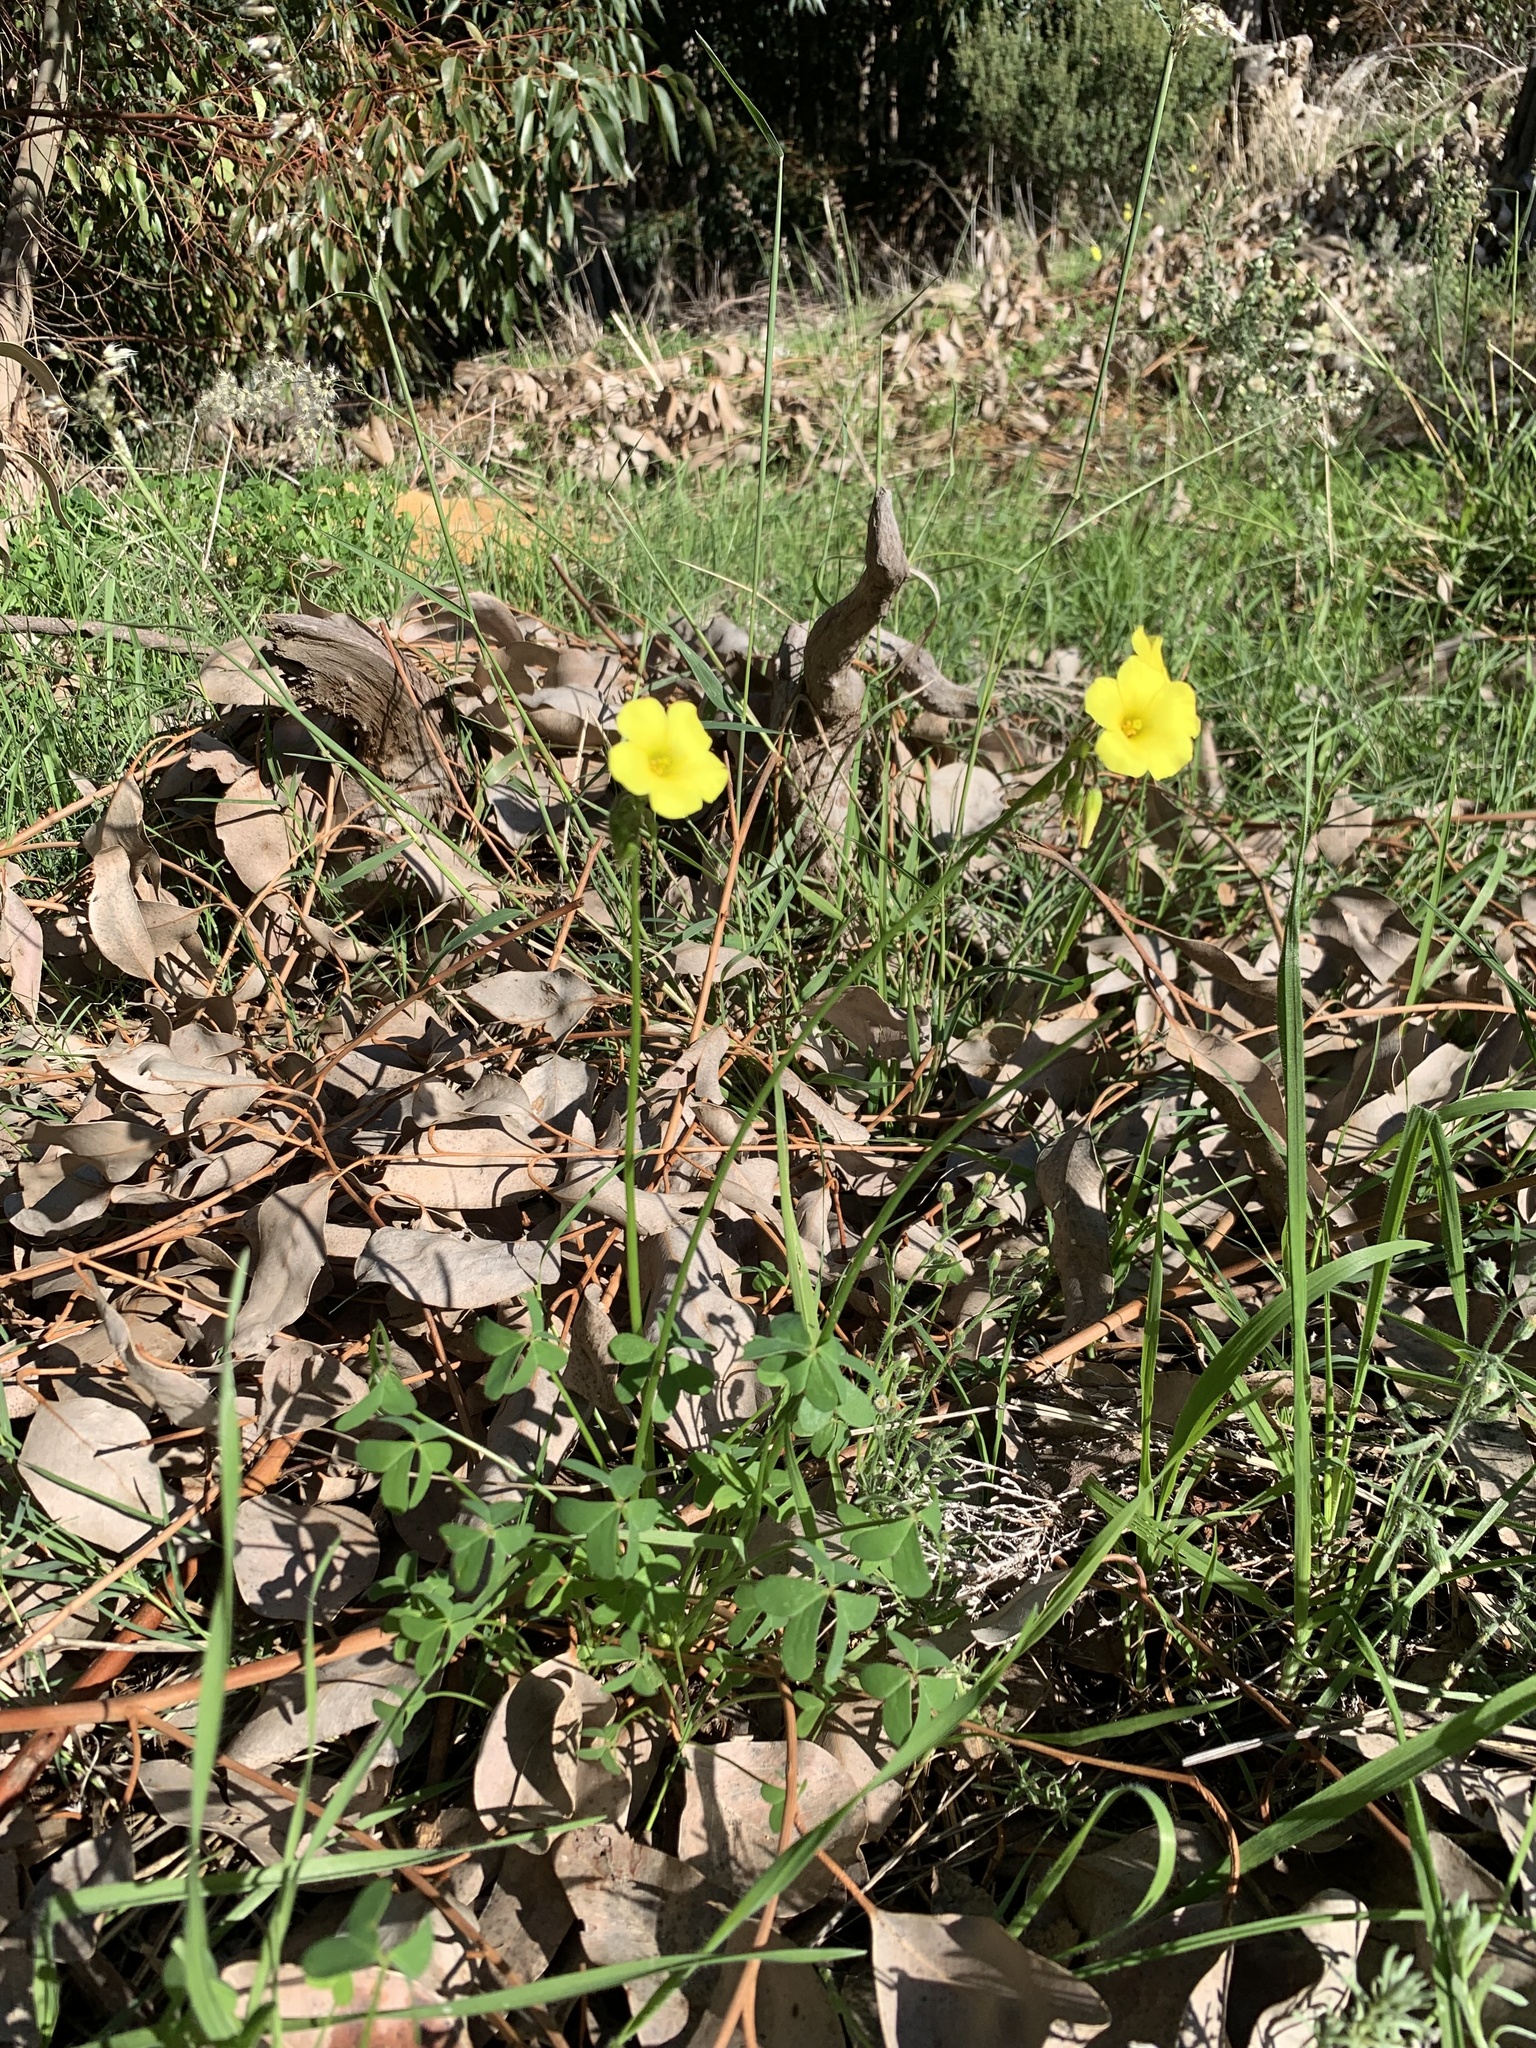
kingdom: Plantae
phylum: Tracheophyta
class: Magnoliopsida
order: Oxalidales
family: Oxalidaceae
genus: Oxalis
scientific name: Oxalis pes-caprae
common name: Bermuda-buttercup
